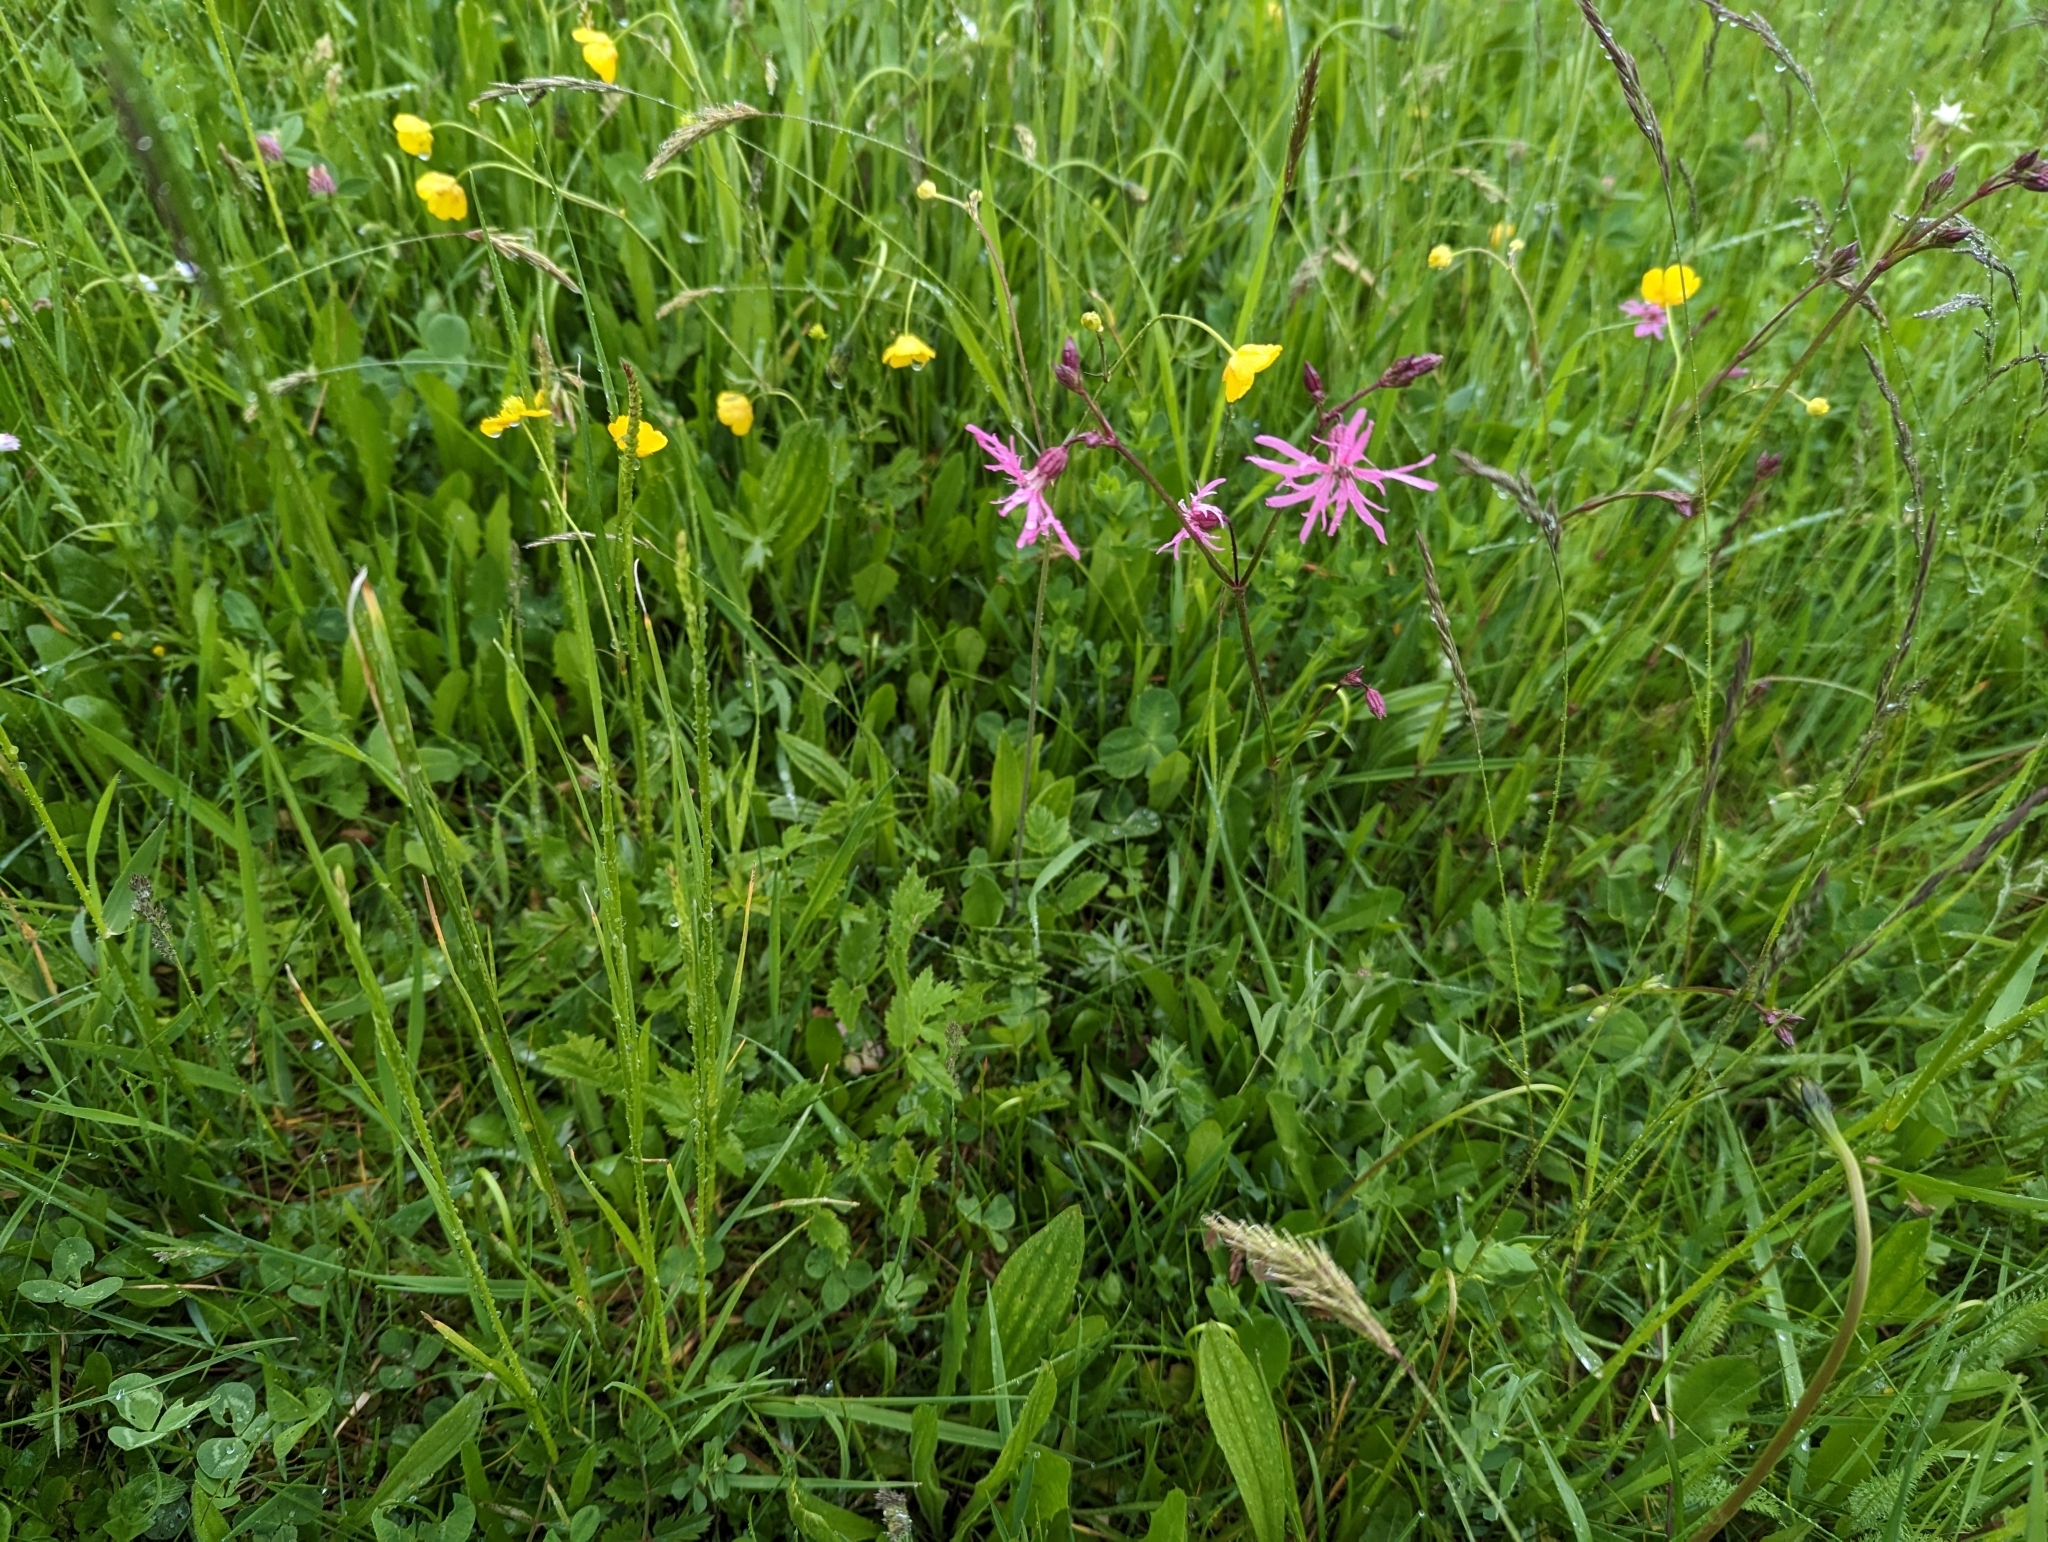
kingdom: Plantae
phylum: Tracheophyta
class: Magnoliopsida
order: Caryophyllales
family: Caryophyllaceae
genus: Silene
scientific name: Silene flos-cuculi
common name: Ragged-robin
